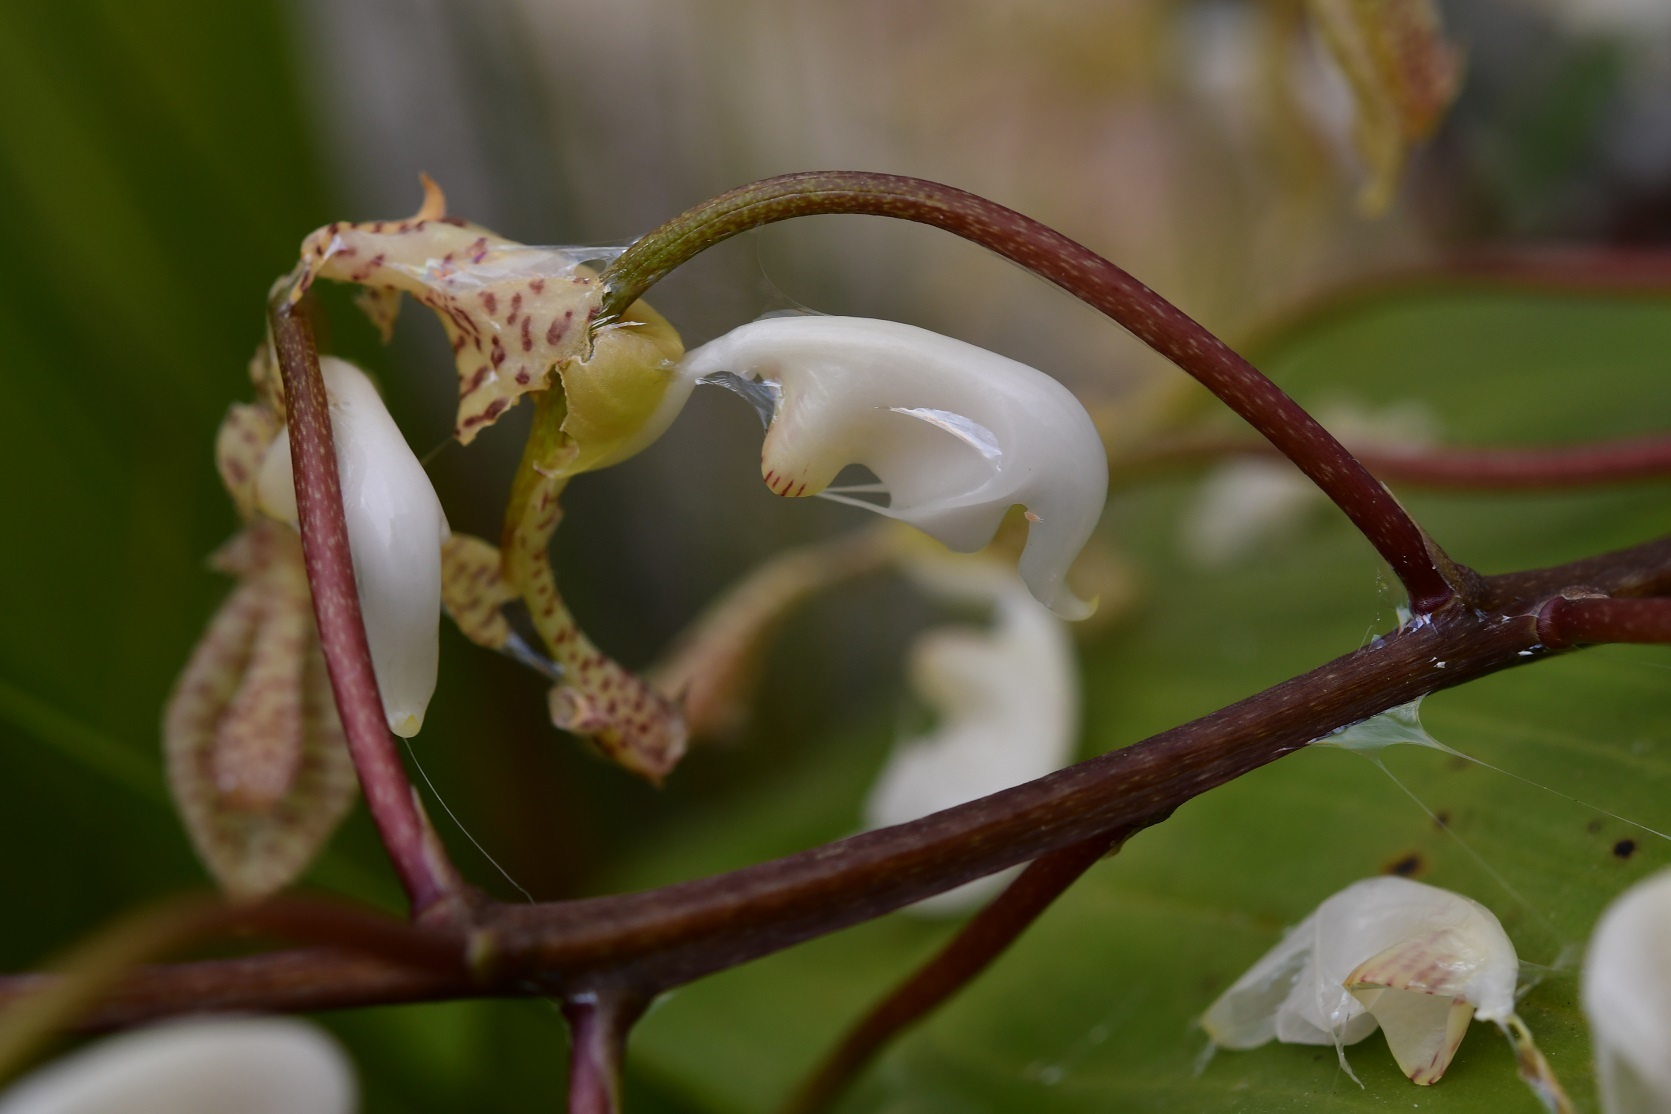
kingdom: Plantae
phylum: Tracheophyta
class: Liliopsida
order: Asparagales
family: Orchidaceae
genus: Gongora
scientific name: Gongora truncata
